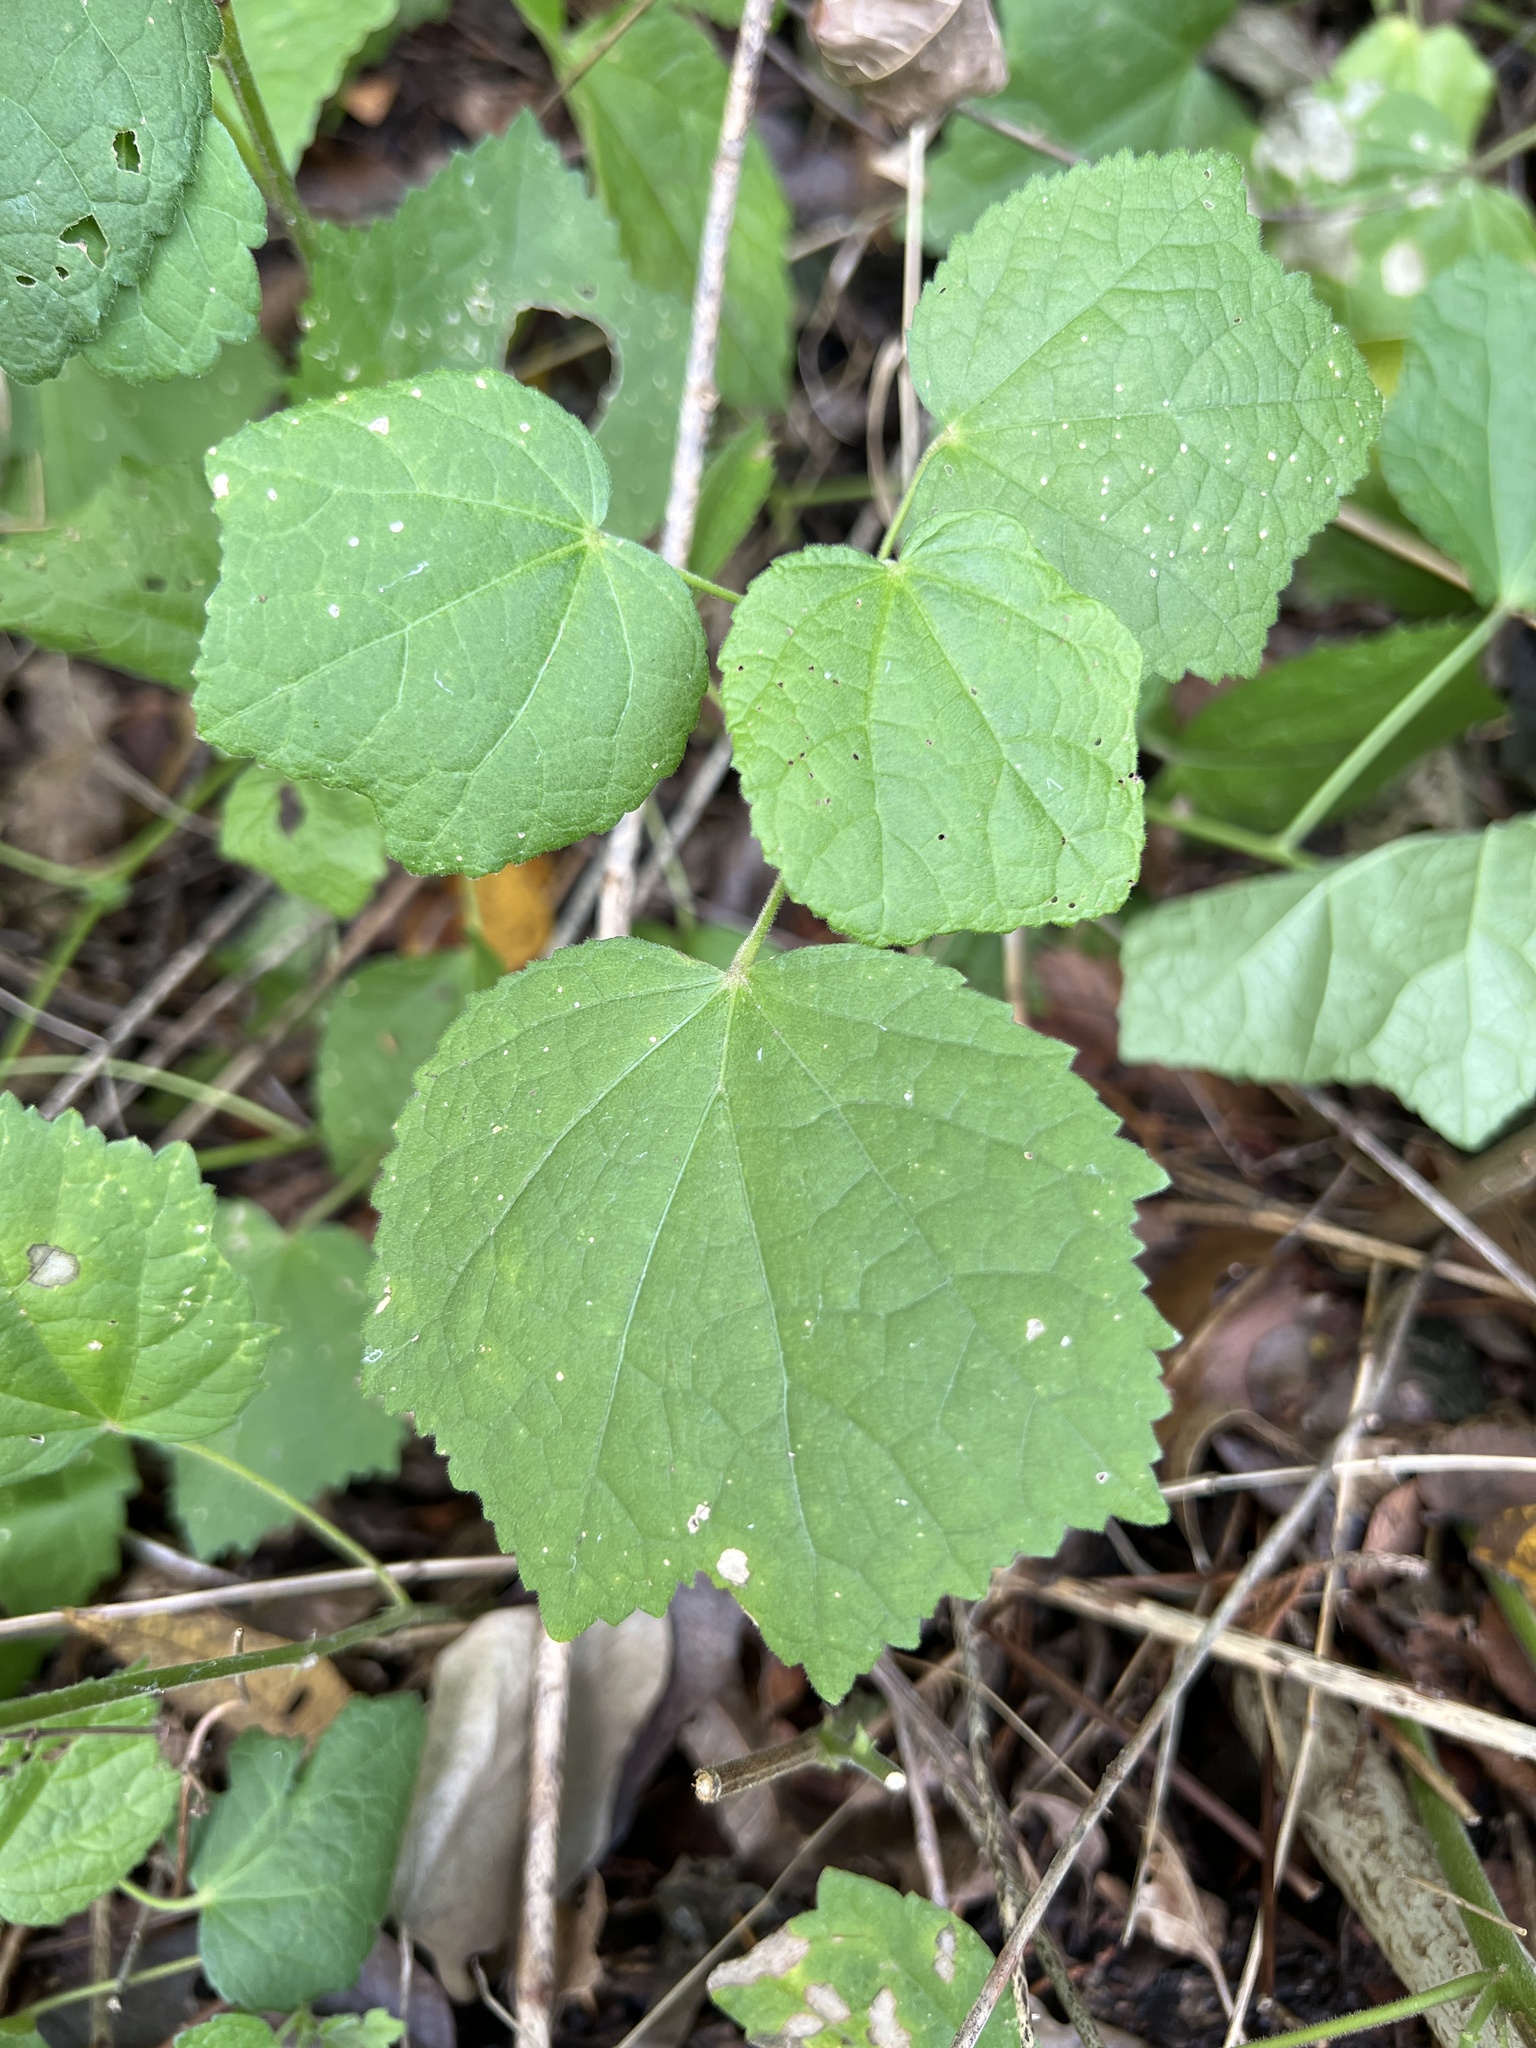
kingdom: Plantae
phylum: Tracheophyta
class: Magnoliopsida
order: Malvales
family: Malvaceae
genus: Malvaviscus
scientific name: Malvaviscus arboreus
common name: Wax mallow
